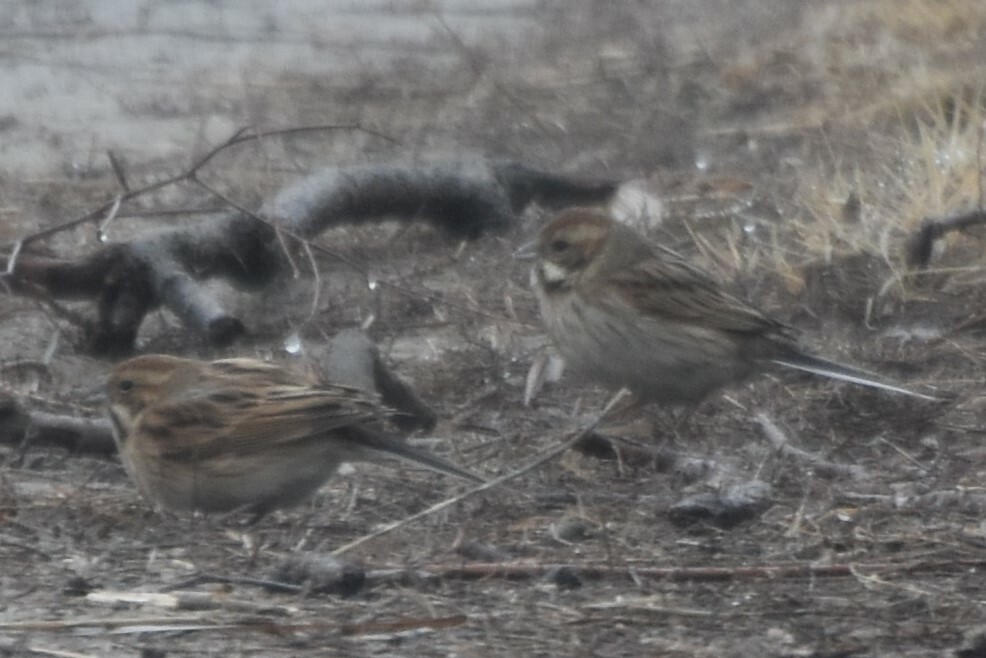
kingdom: Animalia
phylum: Chordata
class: Aves
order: Passeriformes
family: Emberizidae
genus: Emberiza
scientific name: Emberiza schoeniclus
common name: Reed bunting
